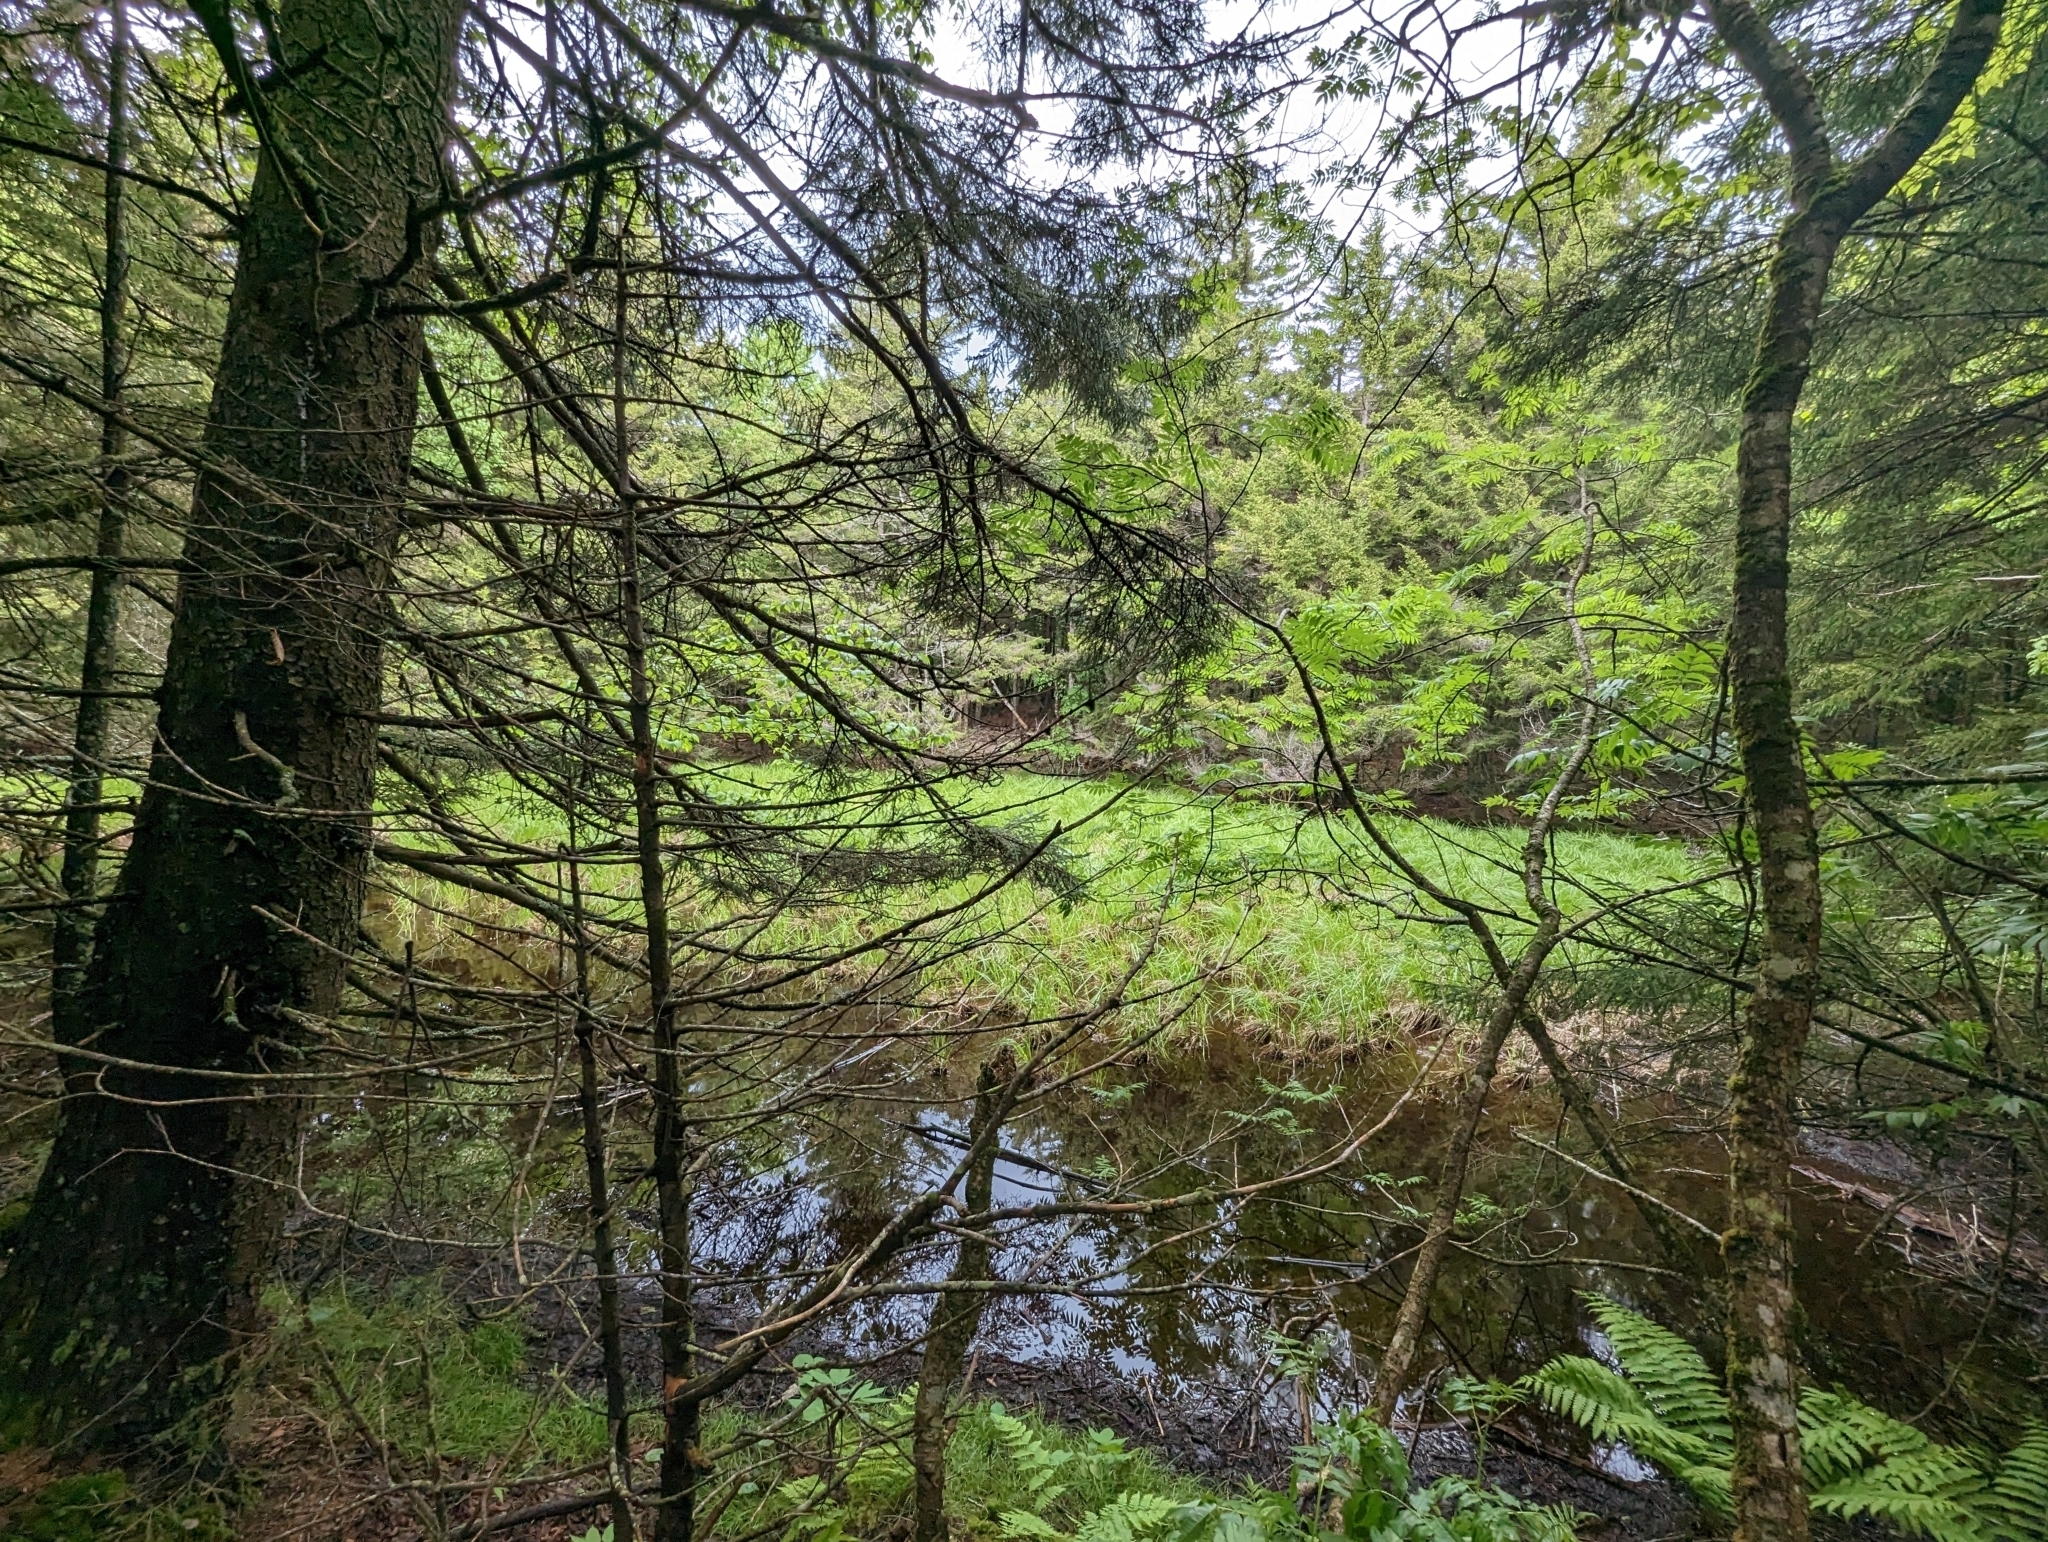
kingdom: Plantae
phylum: Tracheophyta
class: Pinopsida
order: Pinales
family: Pinaceae
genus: Tsuga
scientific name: Tsuga canadensis
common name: Eastern hemlock
